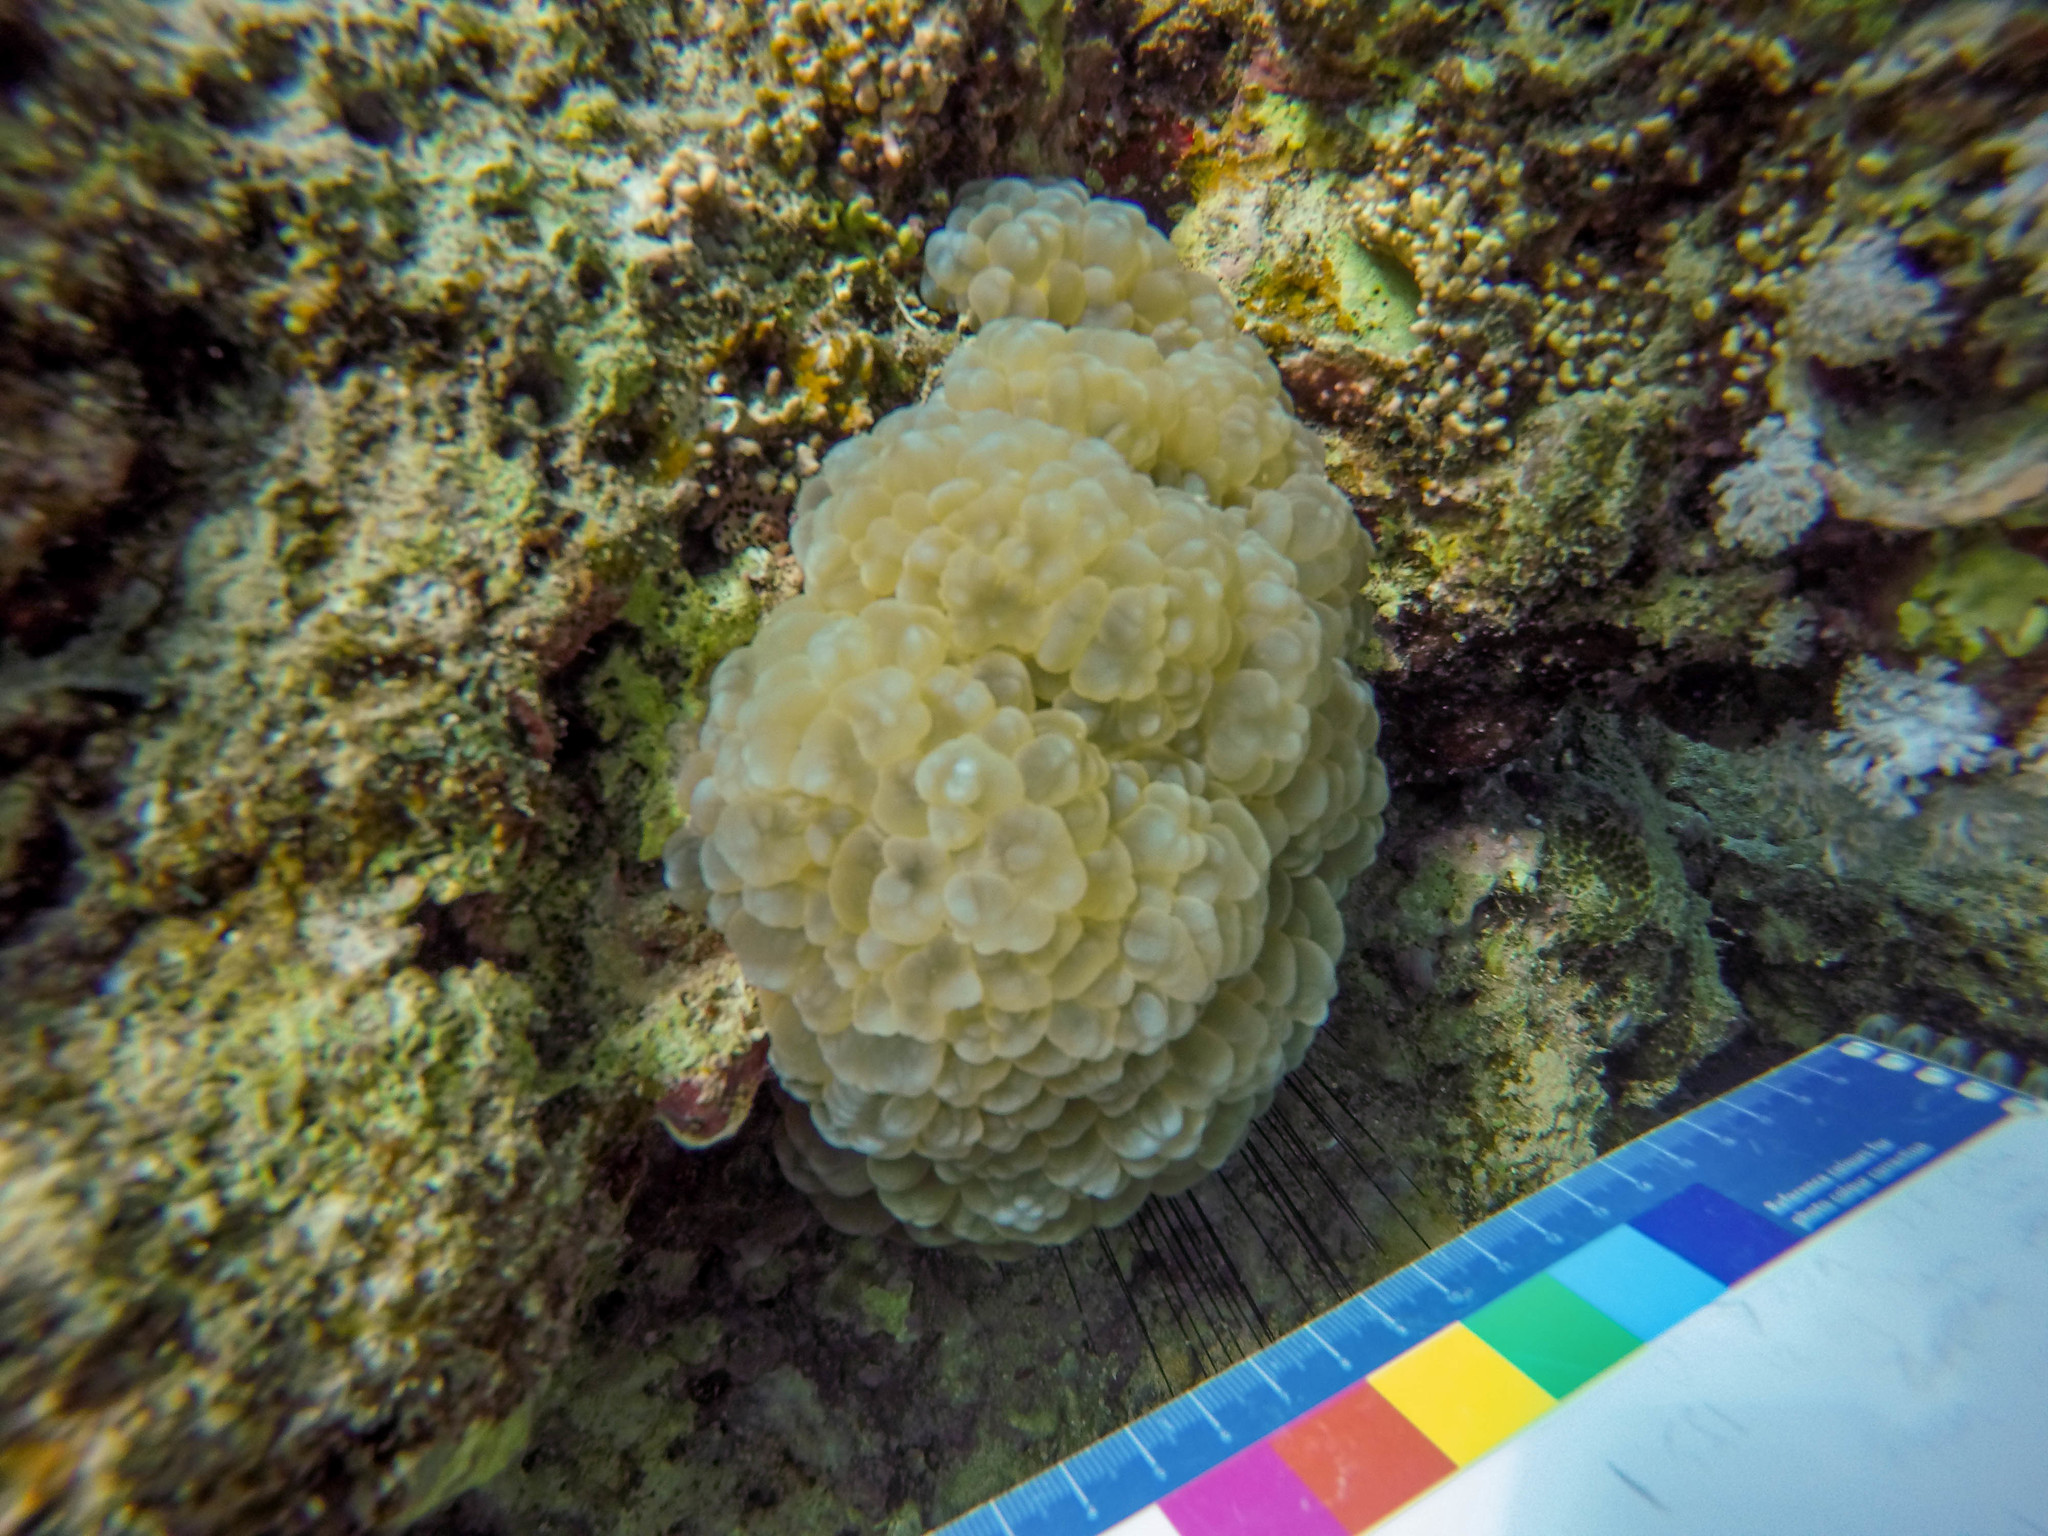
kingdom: Animalia
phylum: Echinodermata
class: Echinoidea
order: Diadematoida
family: Diadematidae
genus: Diadema
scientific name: Diadema
